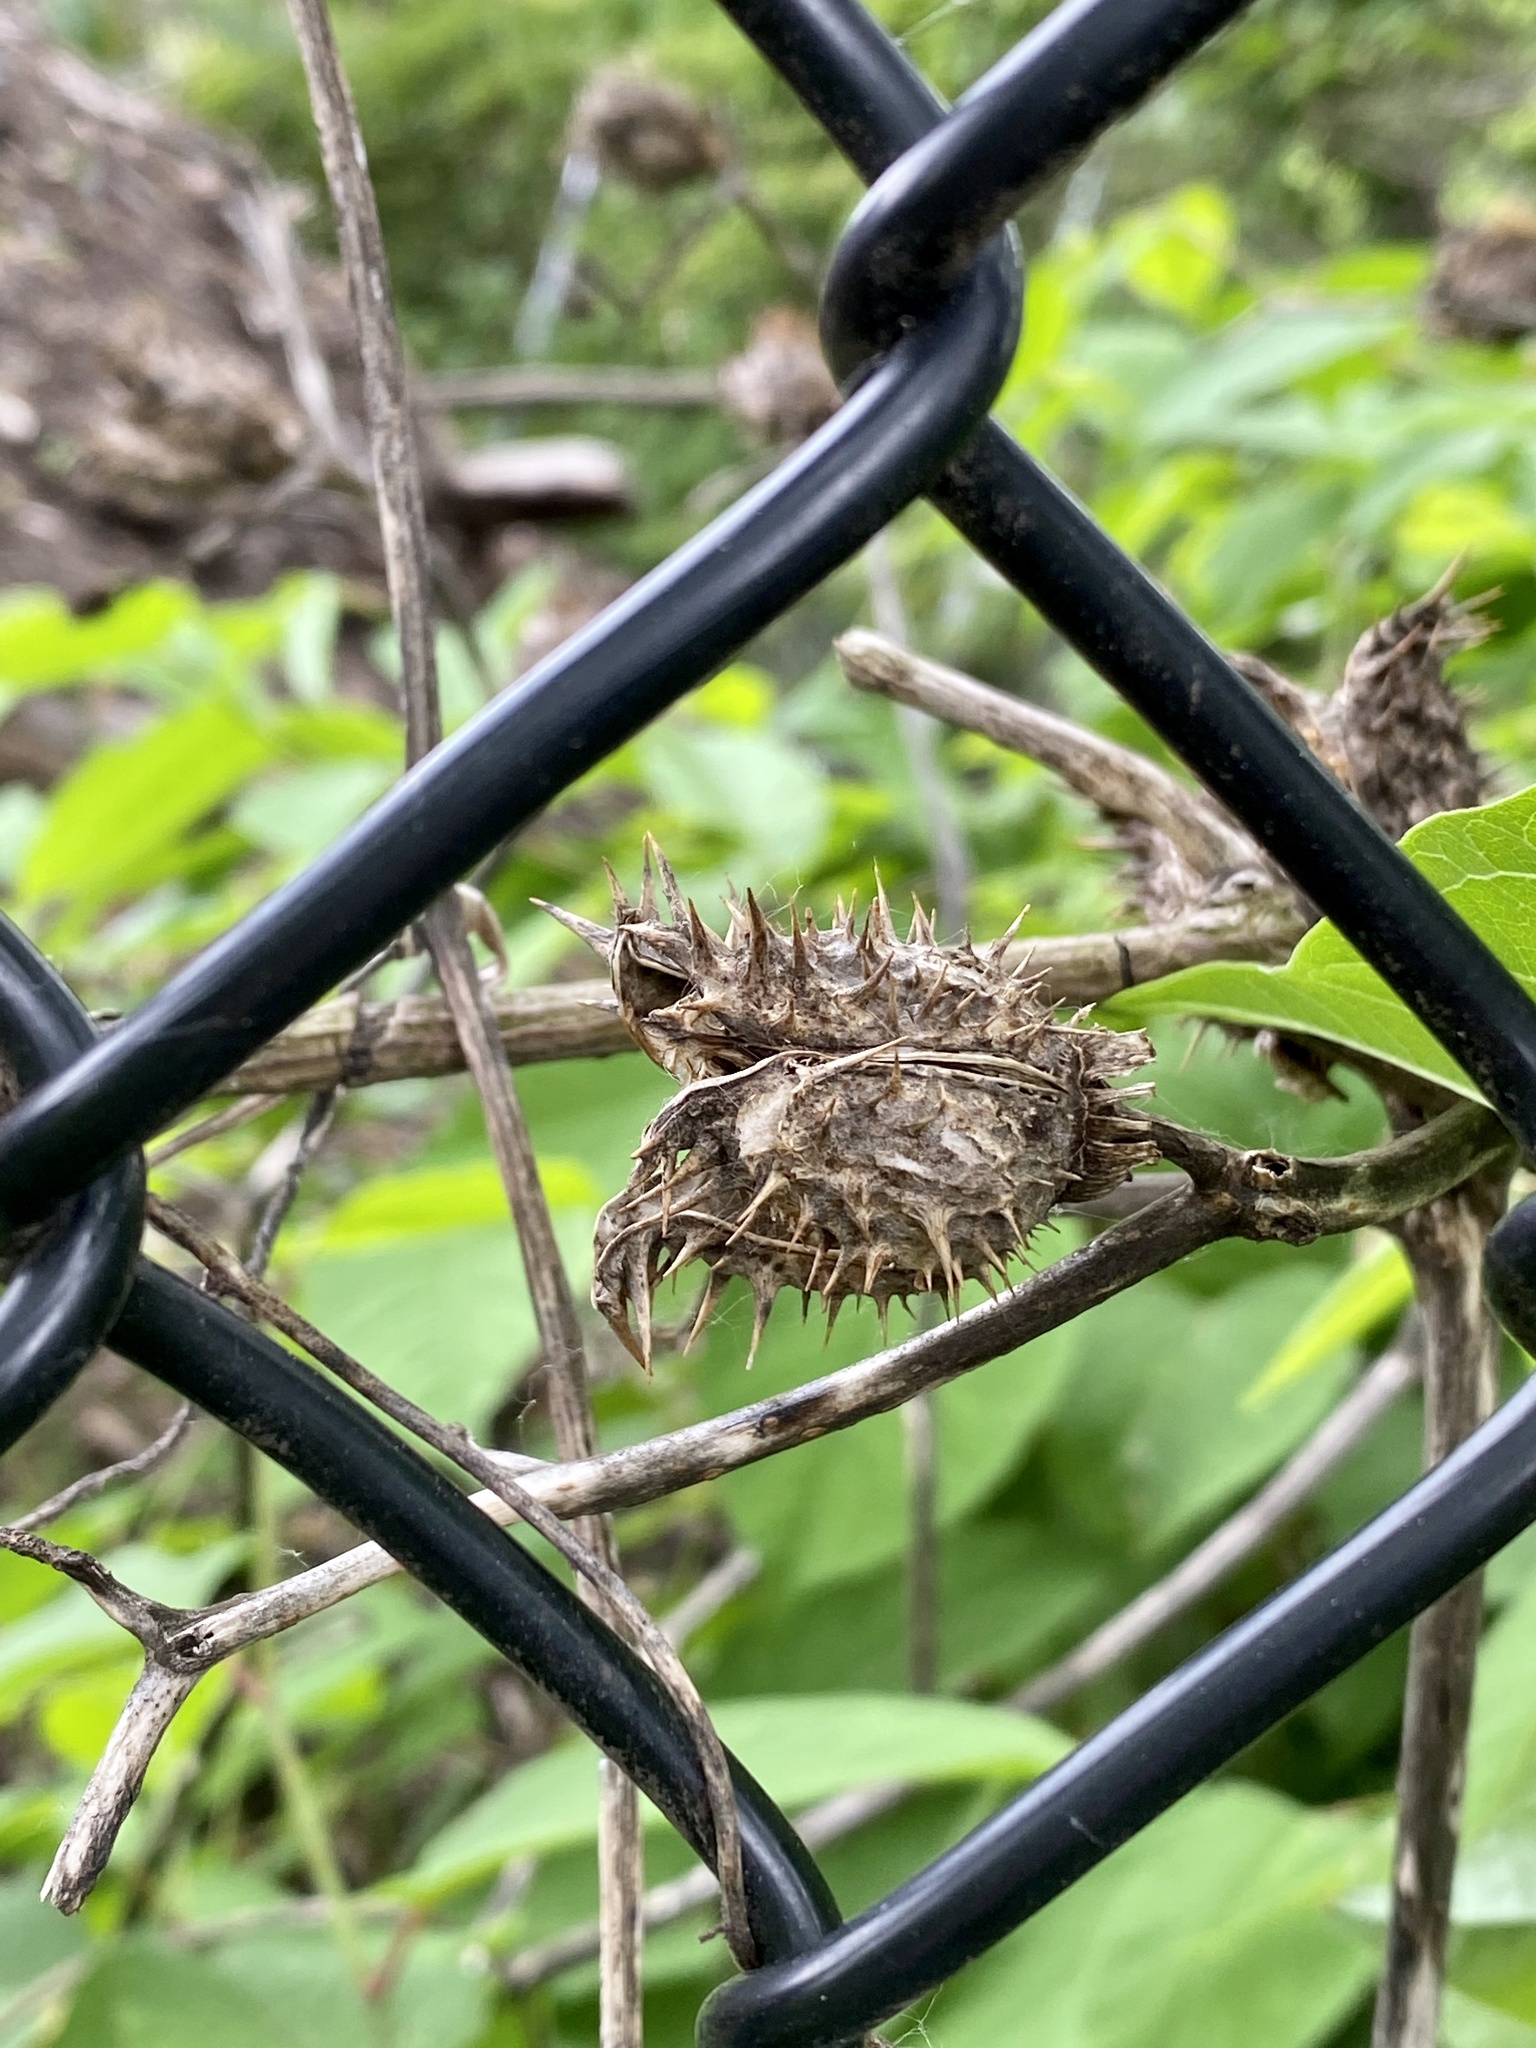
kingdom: Plantae
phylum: Tracheophyta
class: Magnoliopsida
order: Solanales
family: Solanaceae
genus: Datura
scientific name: Datura stramonium
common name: Thorn-apple
